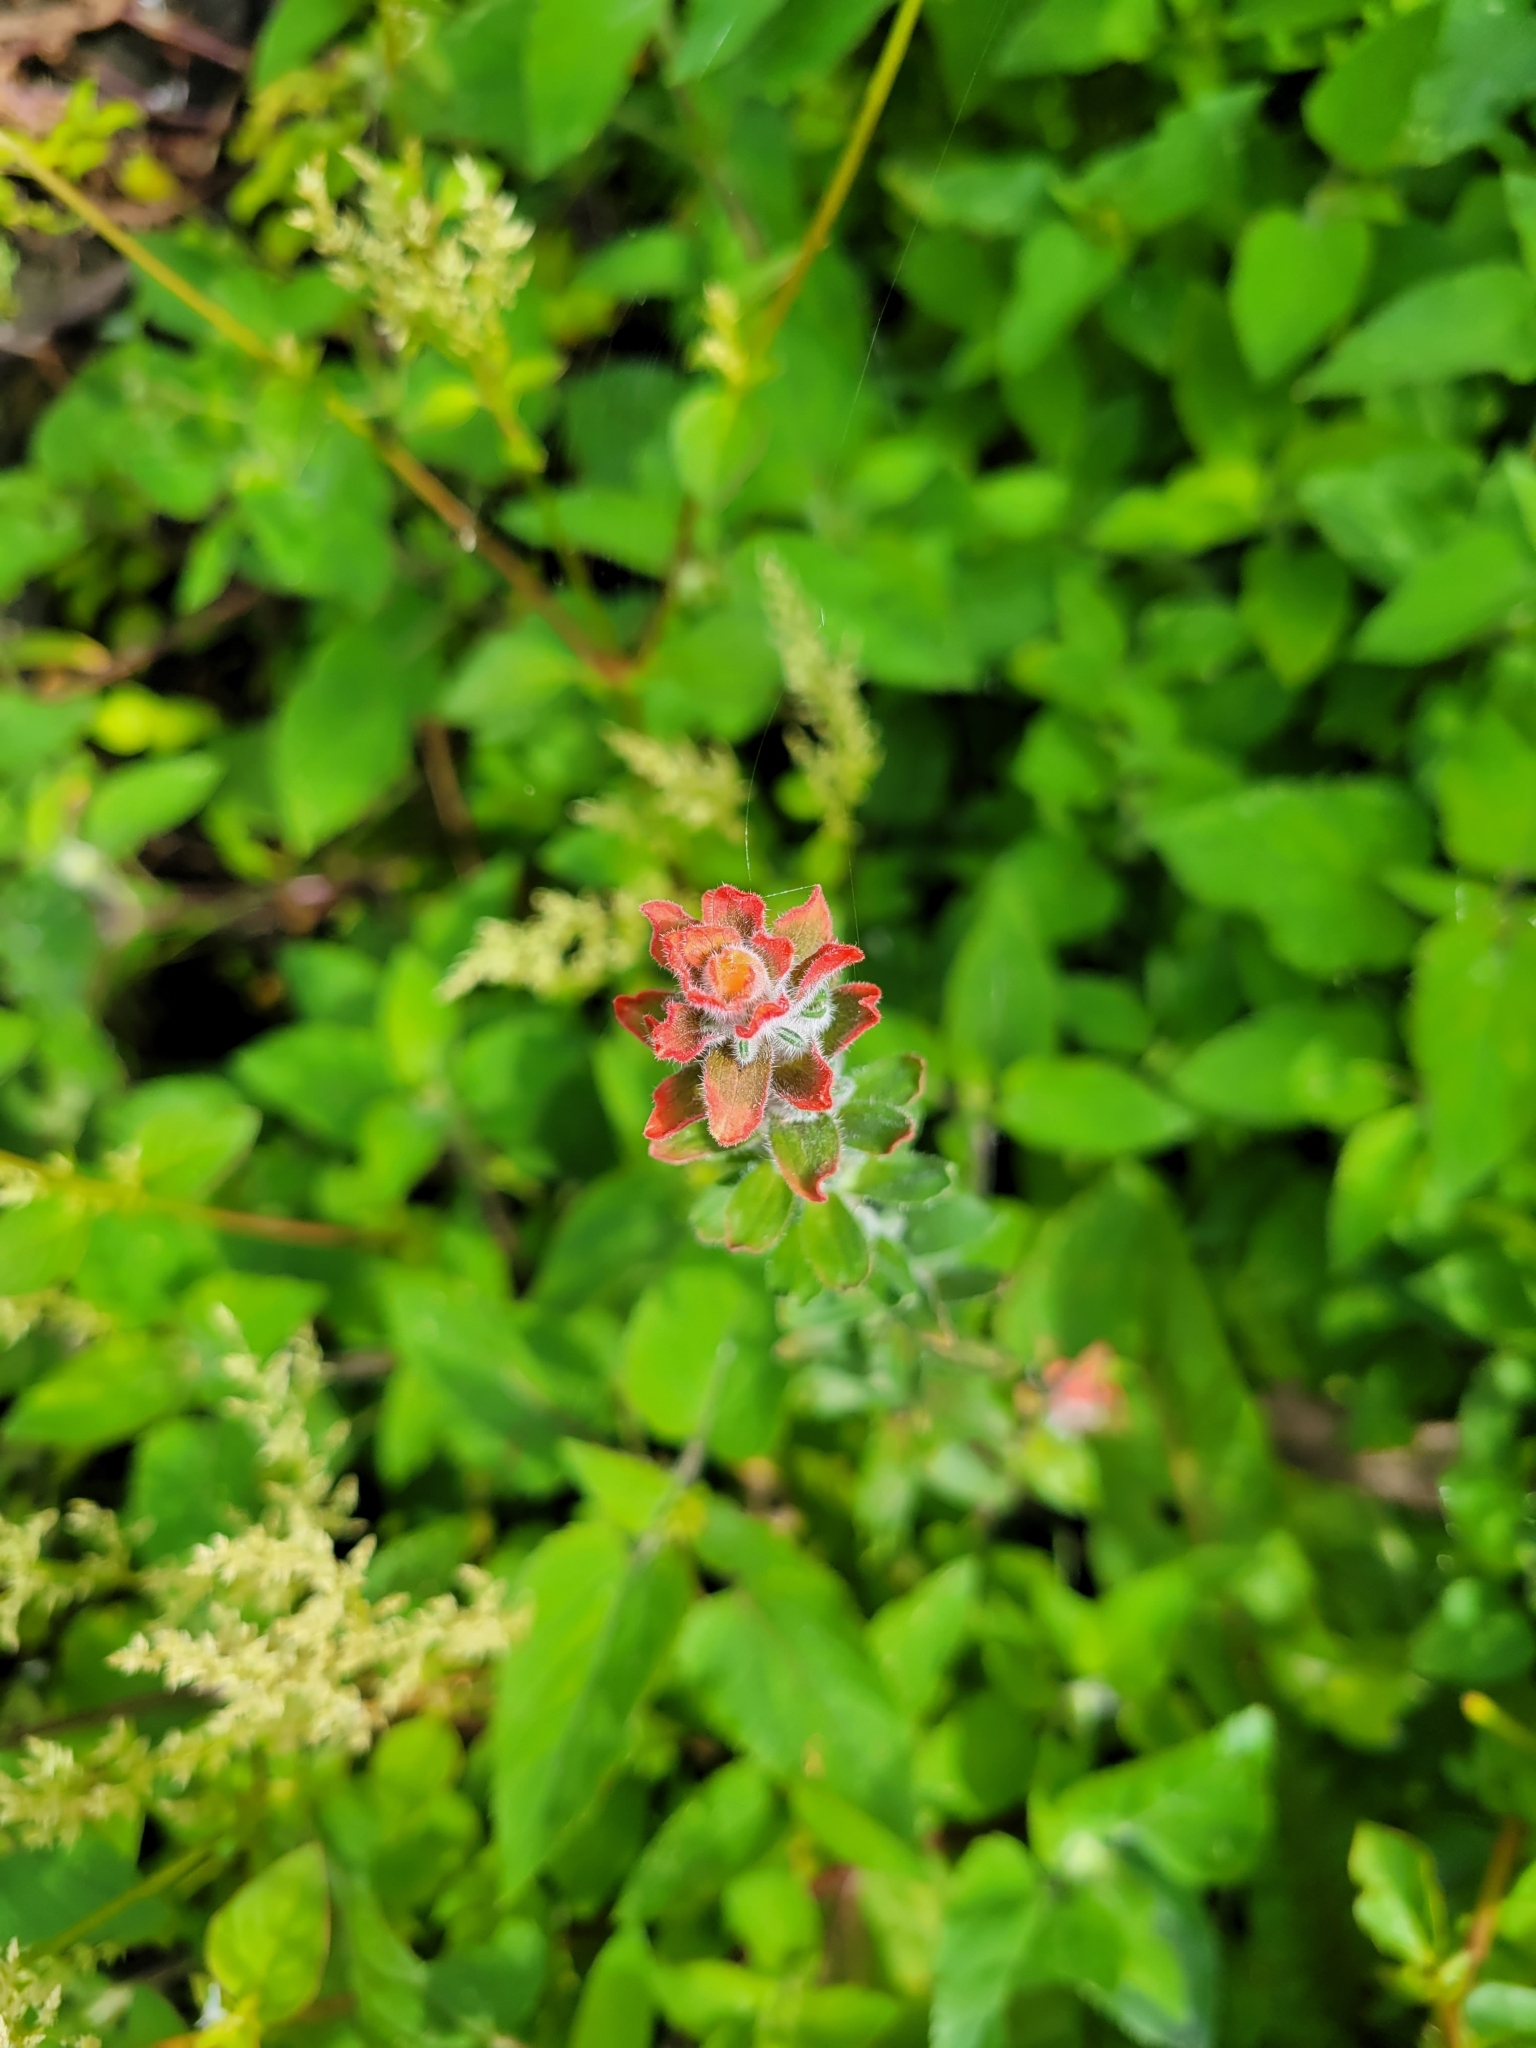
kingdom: Plantae
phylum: Tracheophyta
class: Magnoliopsida
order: Lamiales
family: Orobanchaceae
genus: Castilleja
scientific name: Castilleja arvensis
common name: Indian paintbrush
